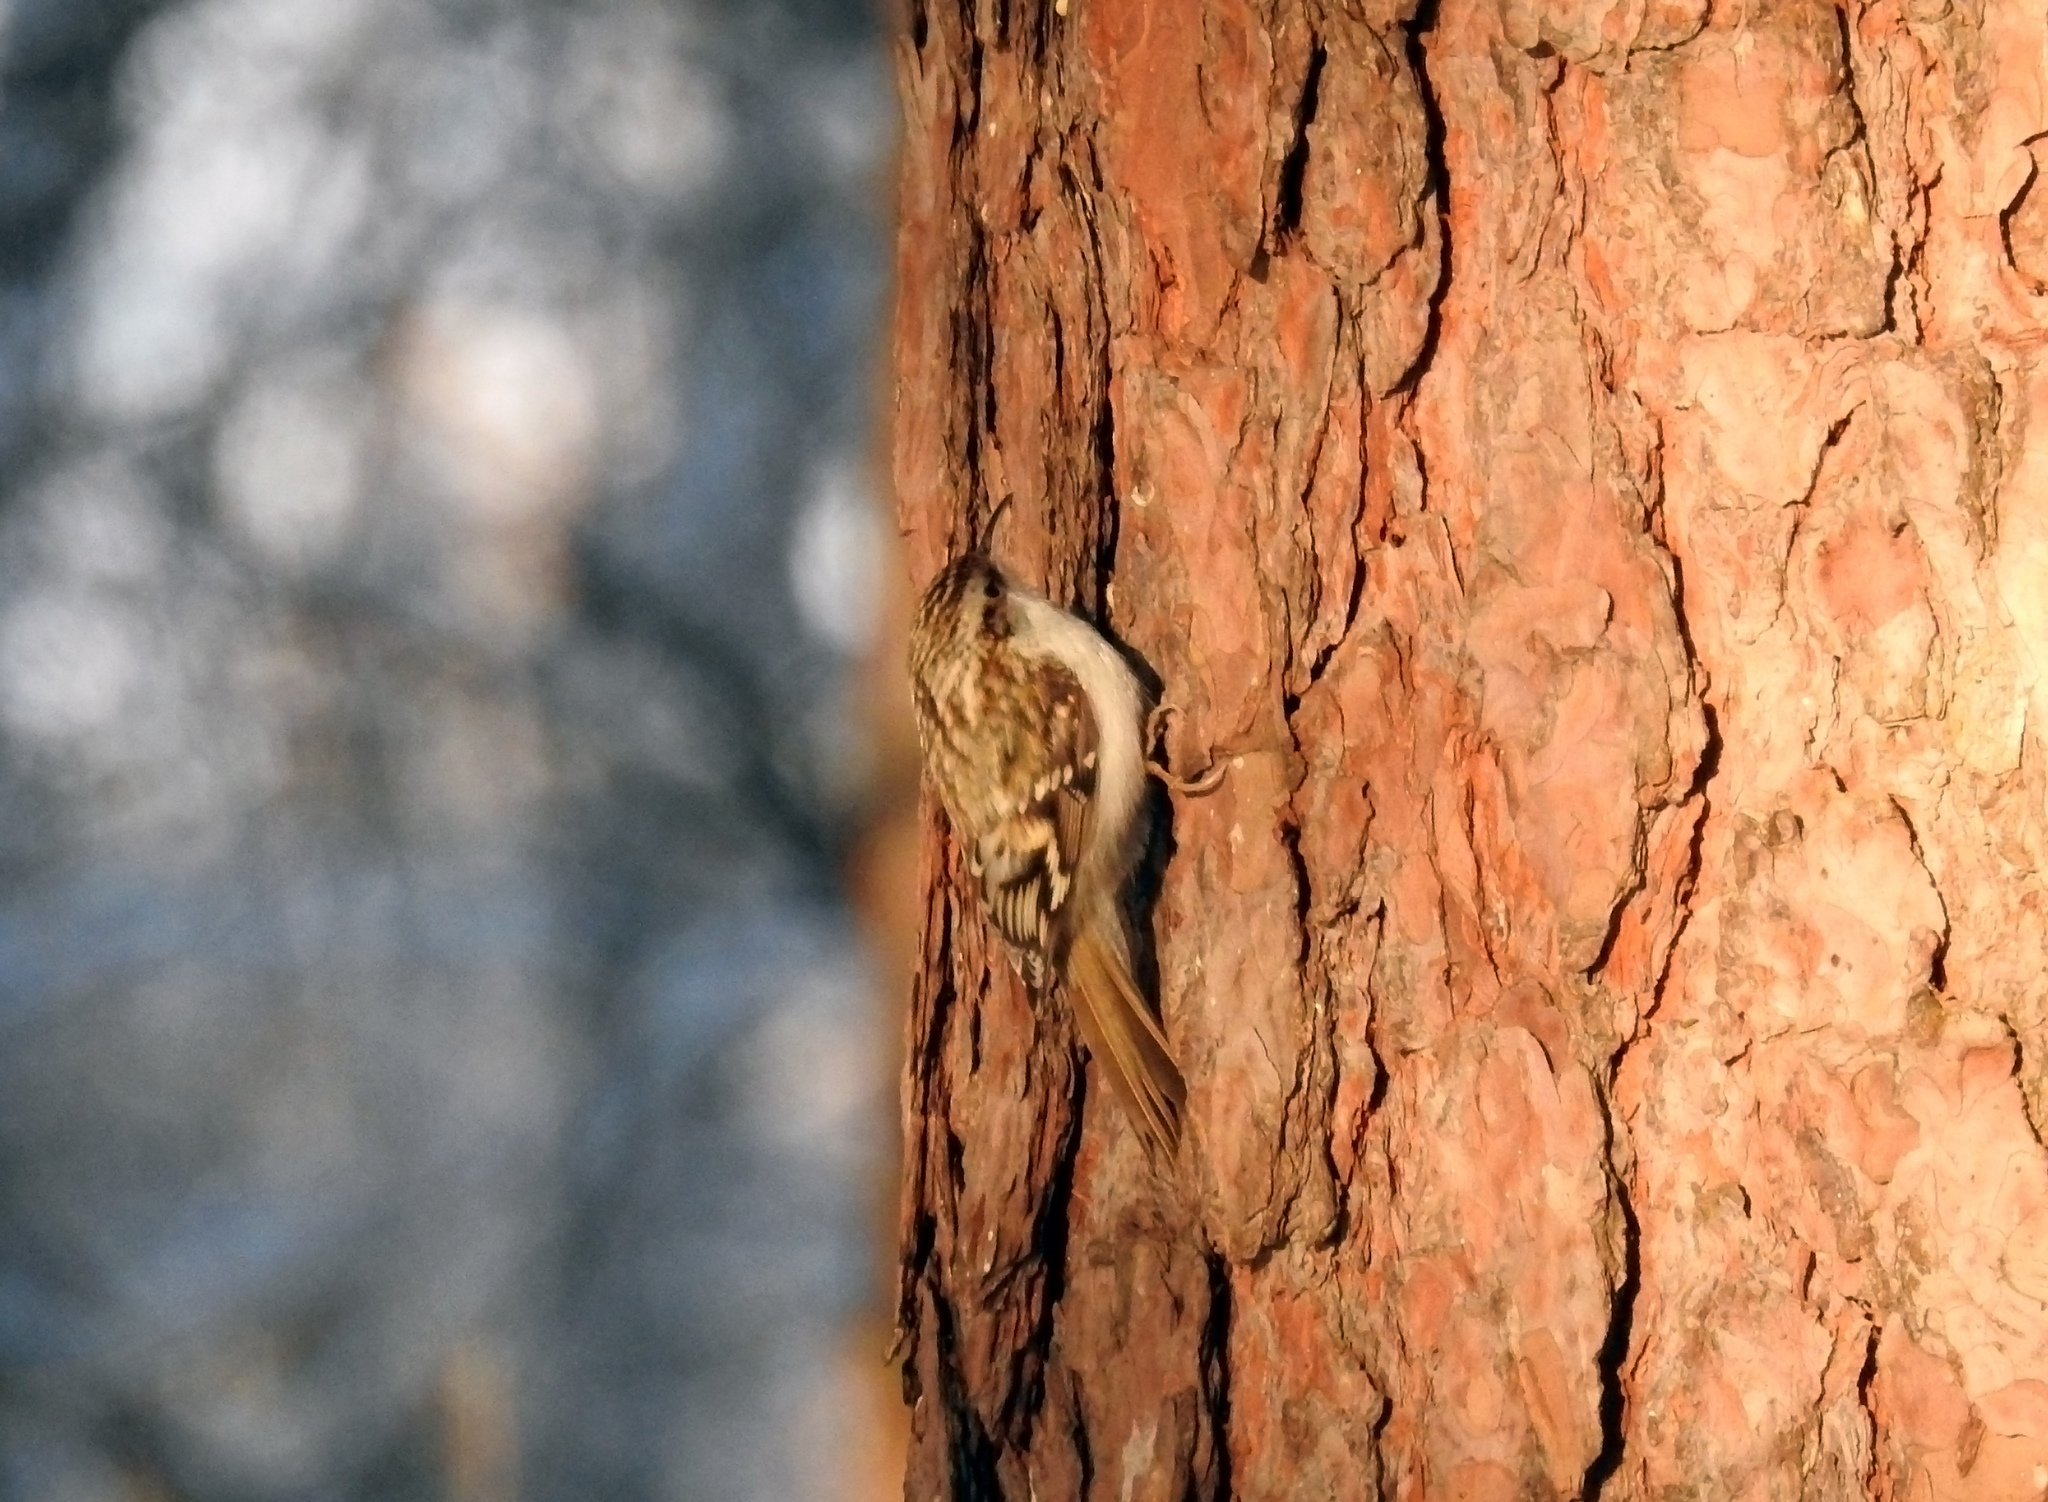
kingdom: Animalia
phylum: Chordata
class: Aves
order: Passeriformes
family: Certhiidae
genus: Certhia
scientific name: Certhia familiaris
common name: Eurasian treecreeper
